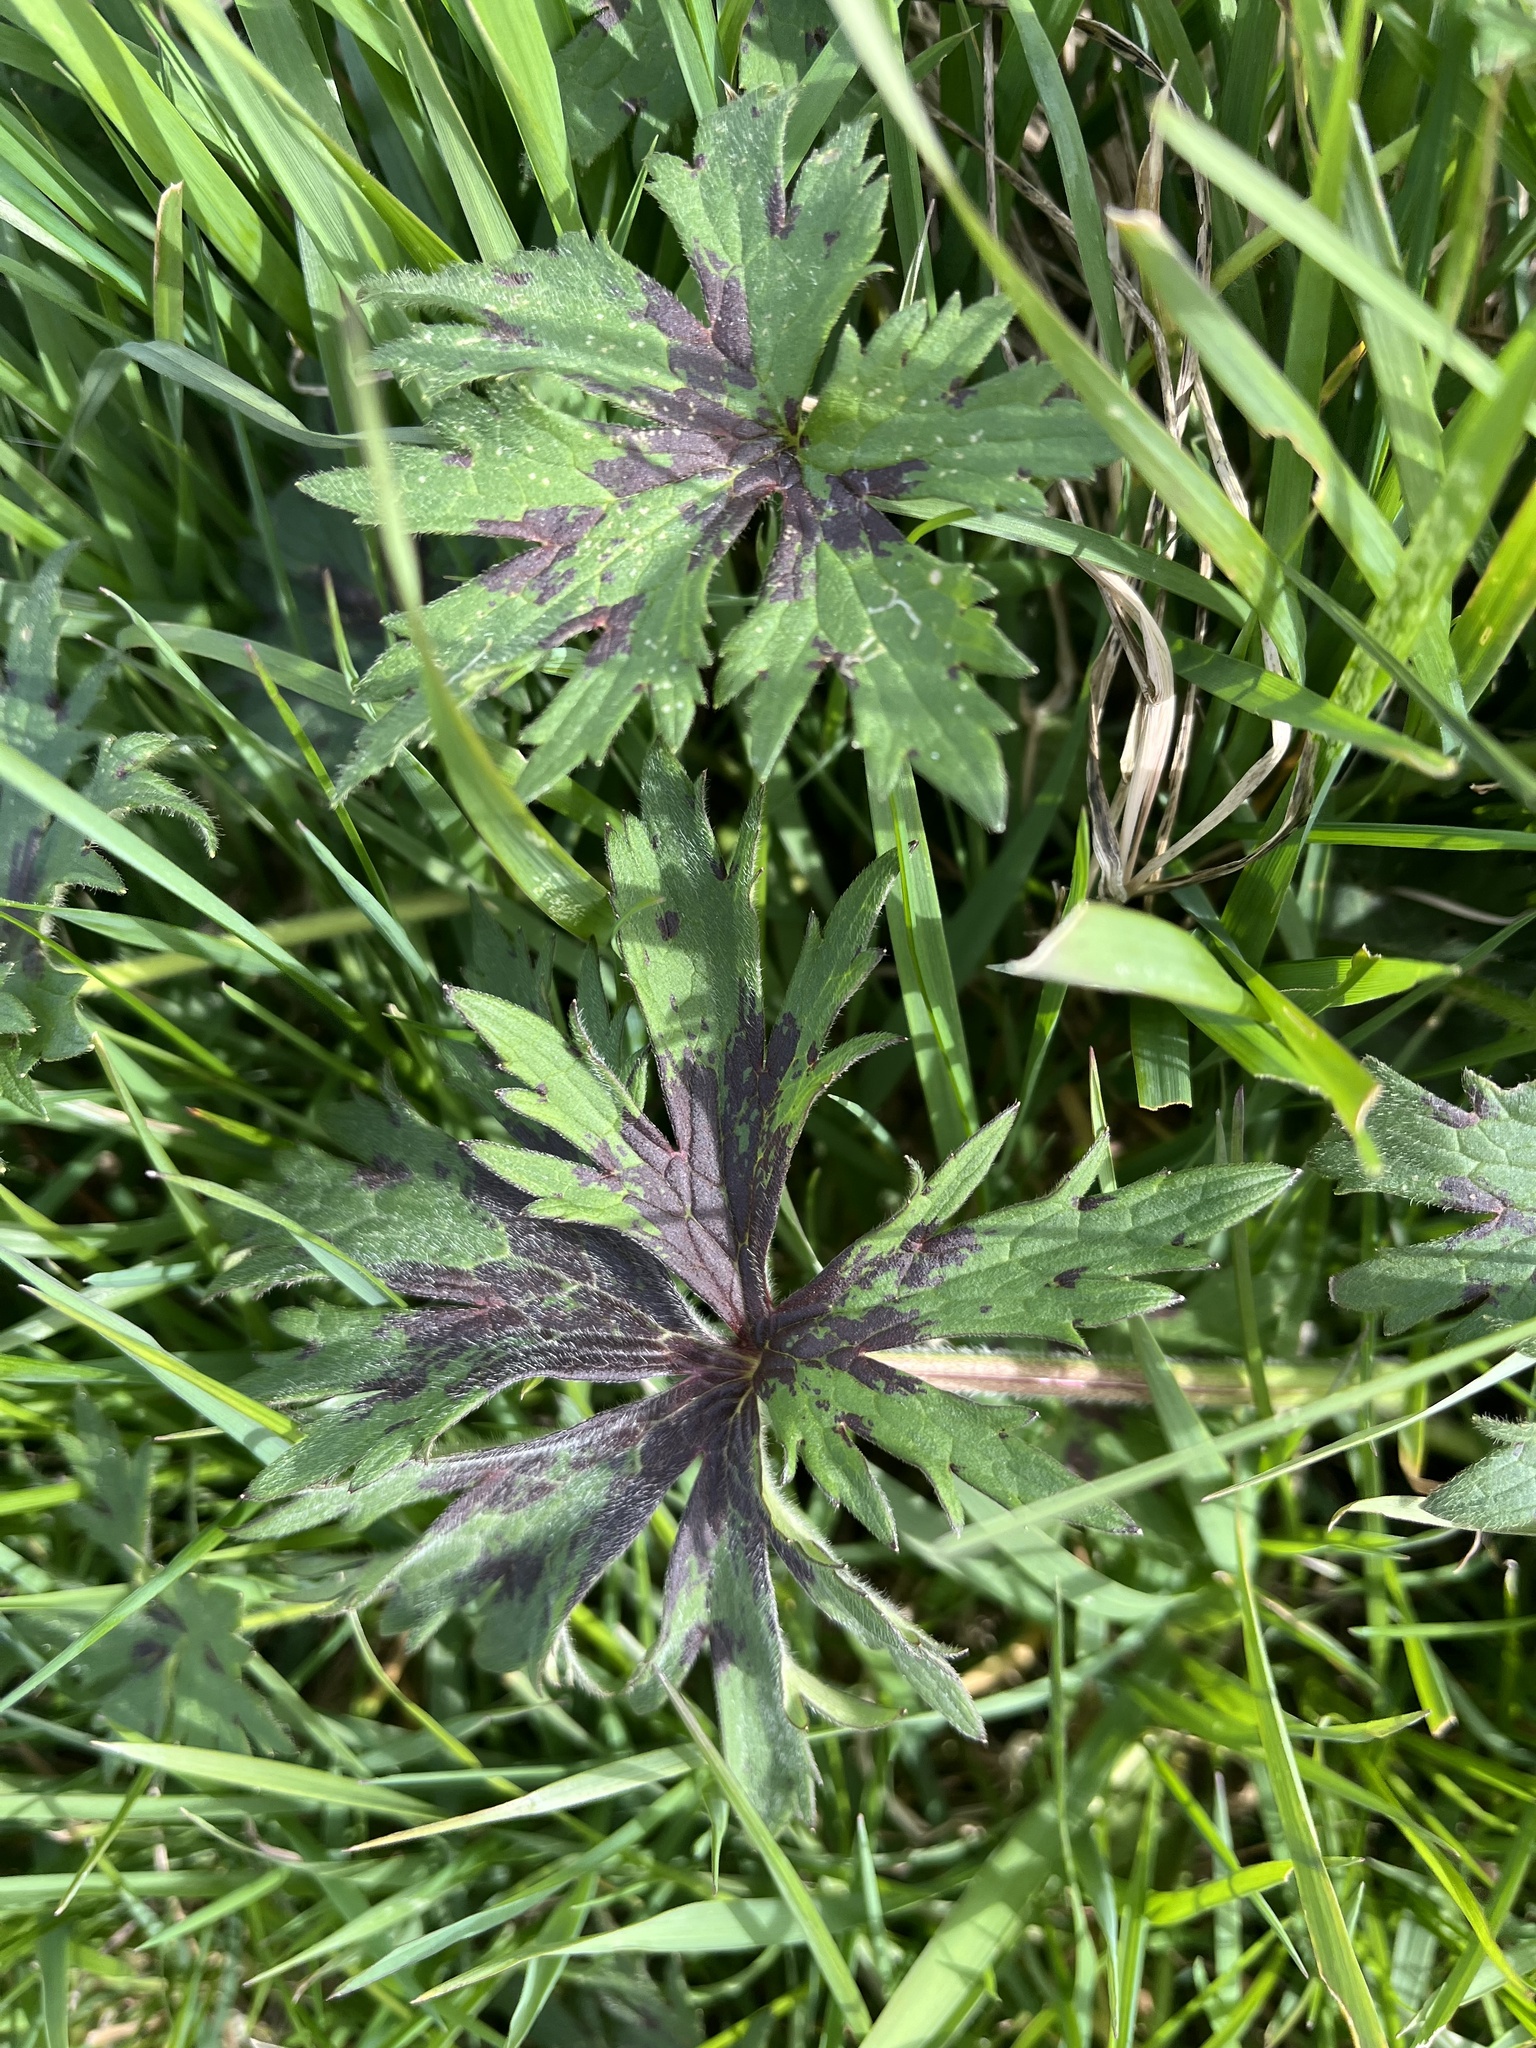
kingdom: Plantae
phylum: Tracheophyta
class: Magnoliopsida
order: Ranunculales
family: Ranunculaceae
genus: Ranunculus
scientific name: Ranunculus acris
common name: Meadow buttercup
